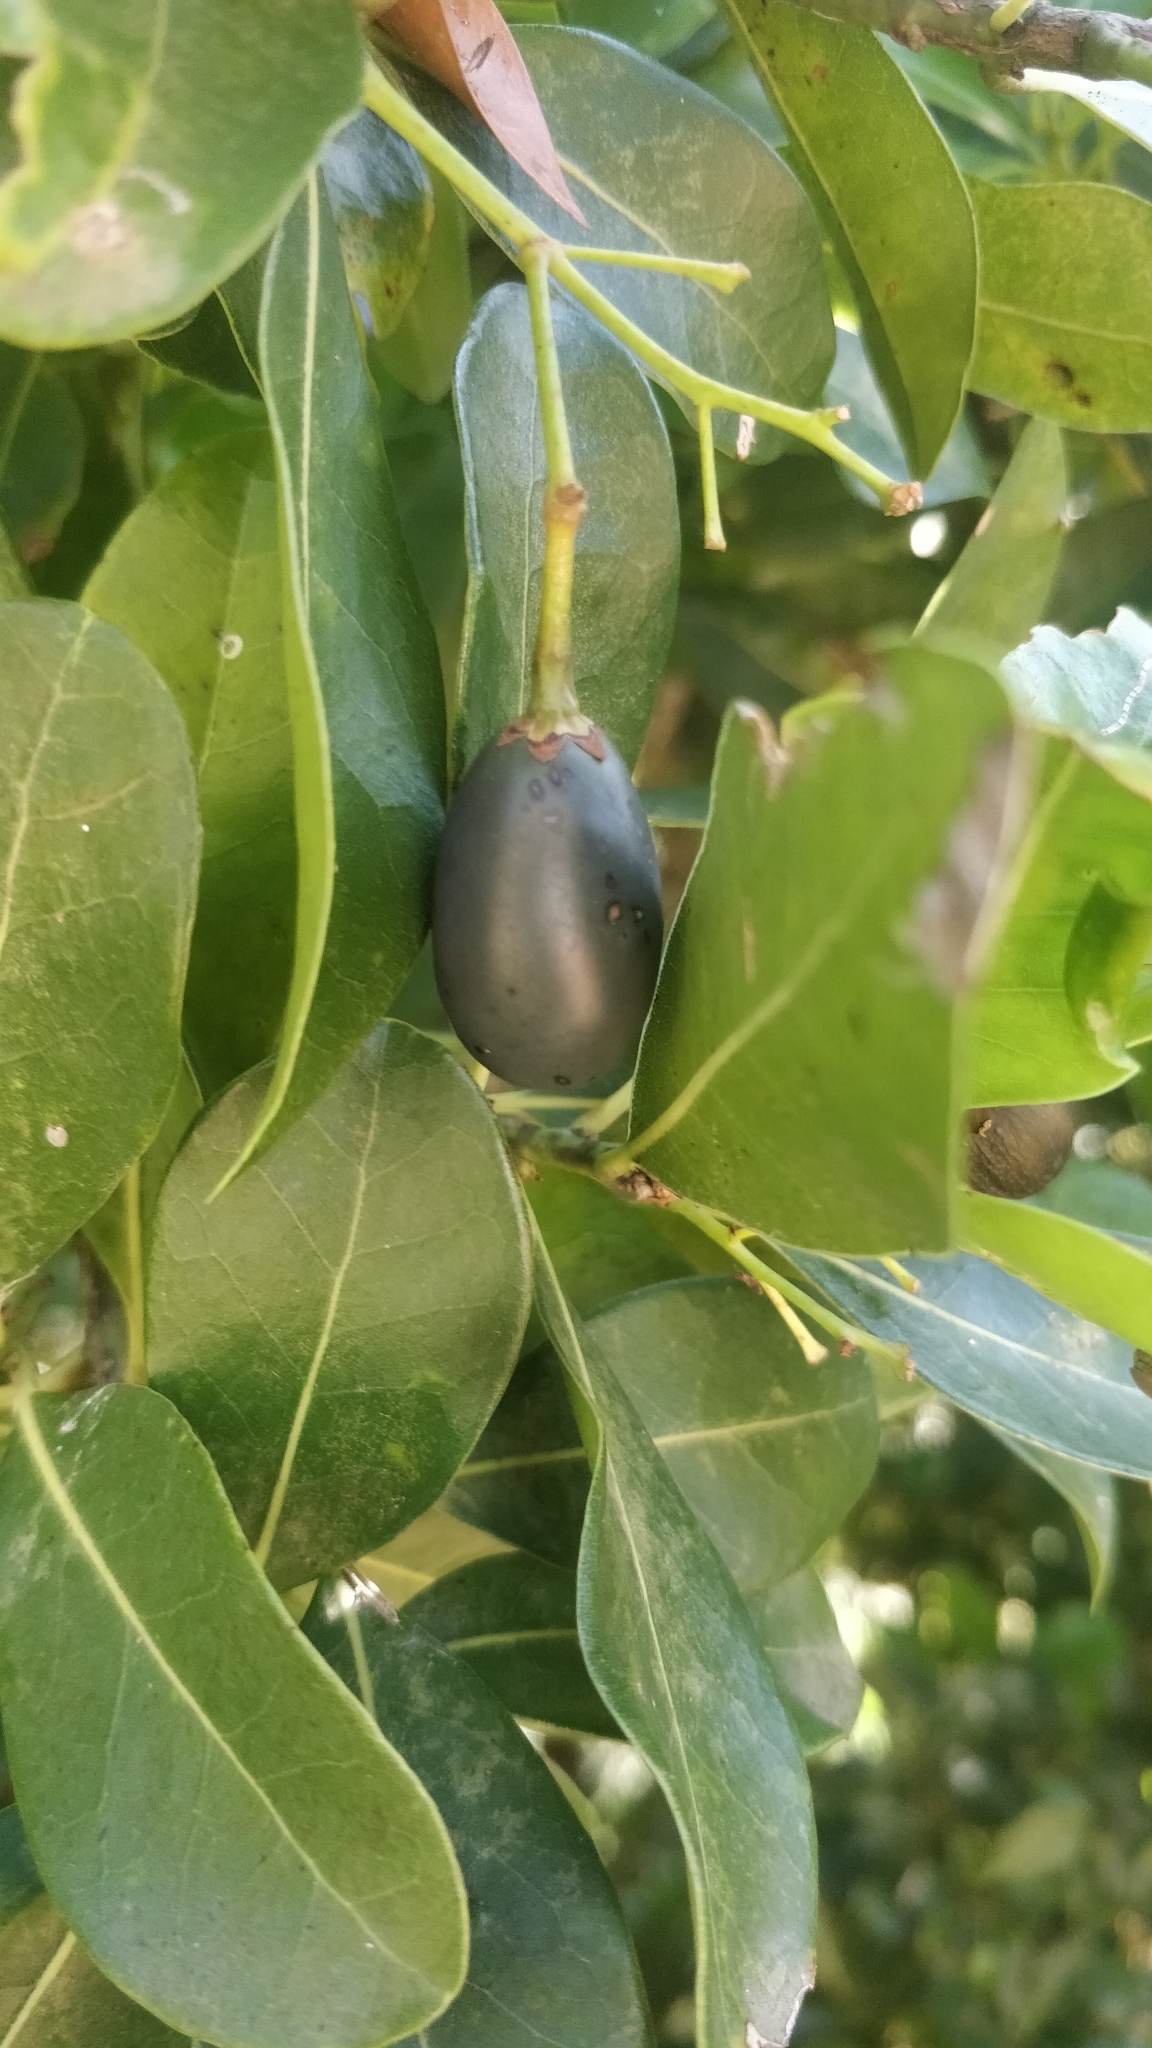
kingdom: Plantae
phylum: Tracheophyta
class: Magnoliopsida
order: Laurales
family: Lauraceae
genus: Apollonias
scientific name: Apollonias barbujana
